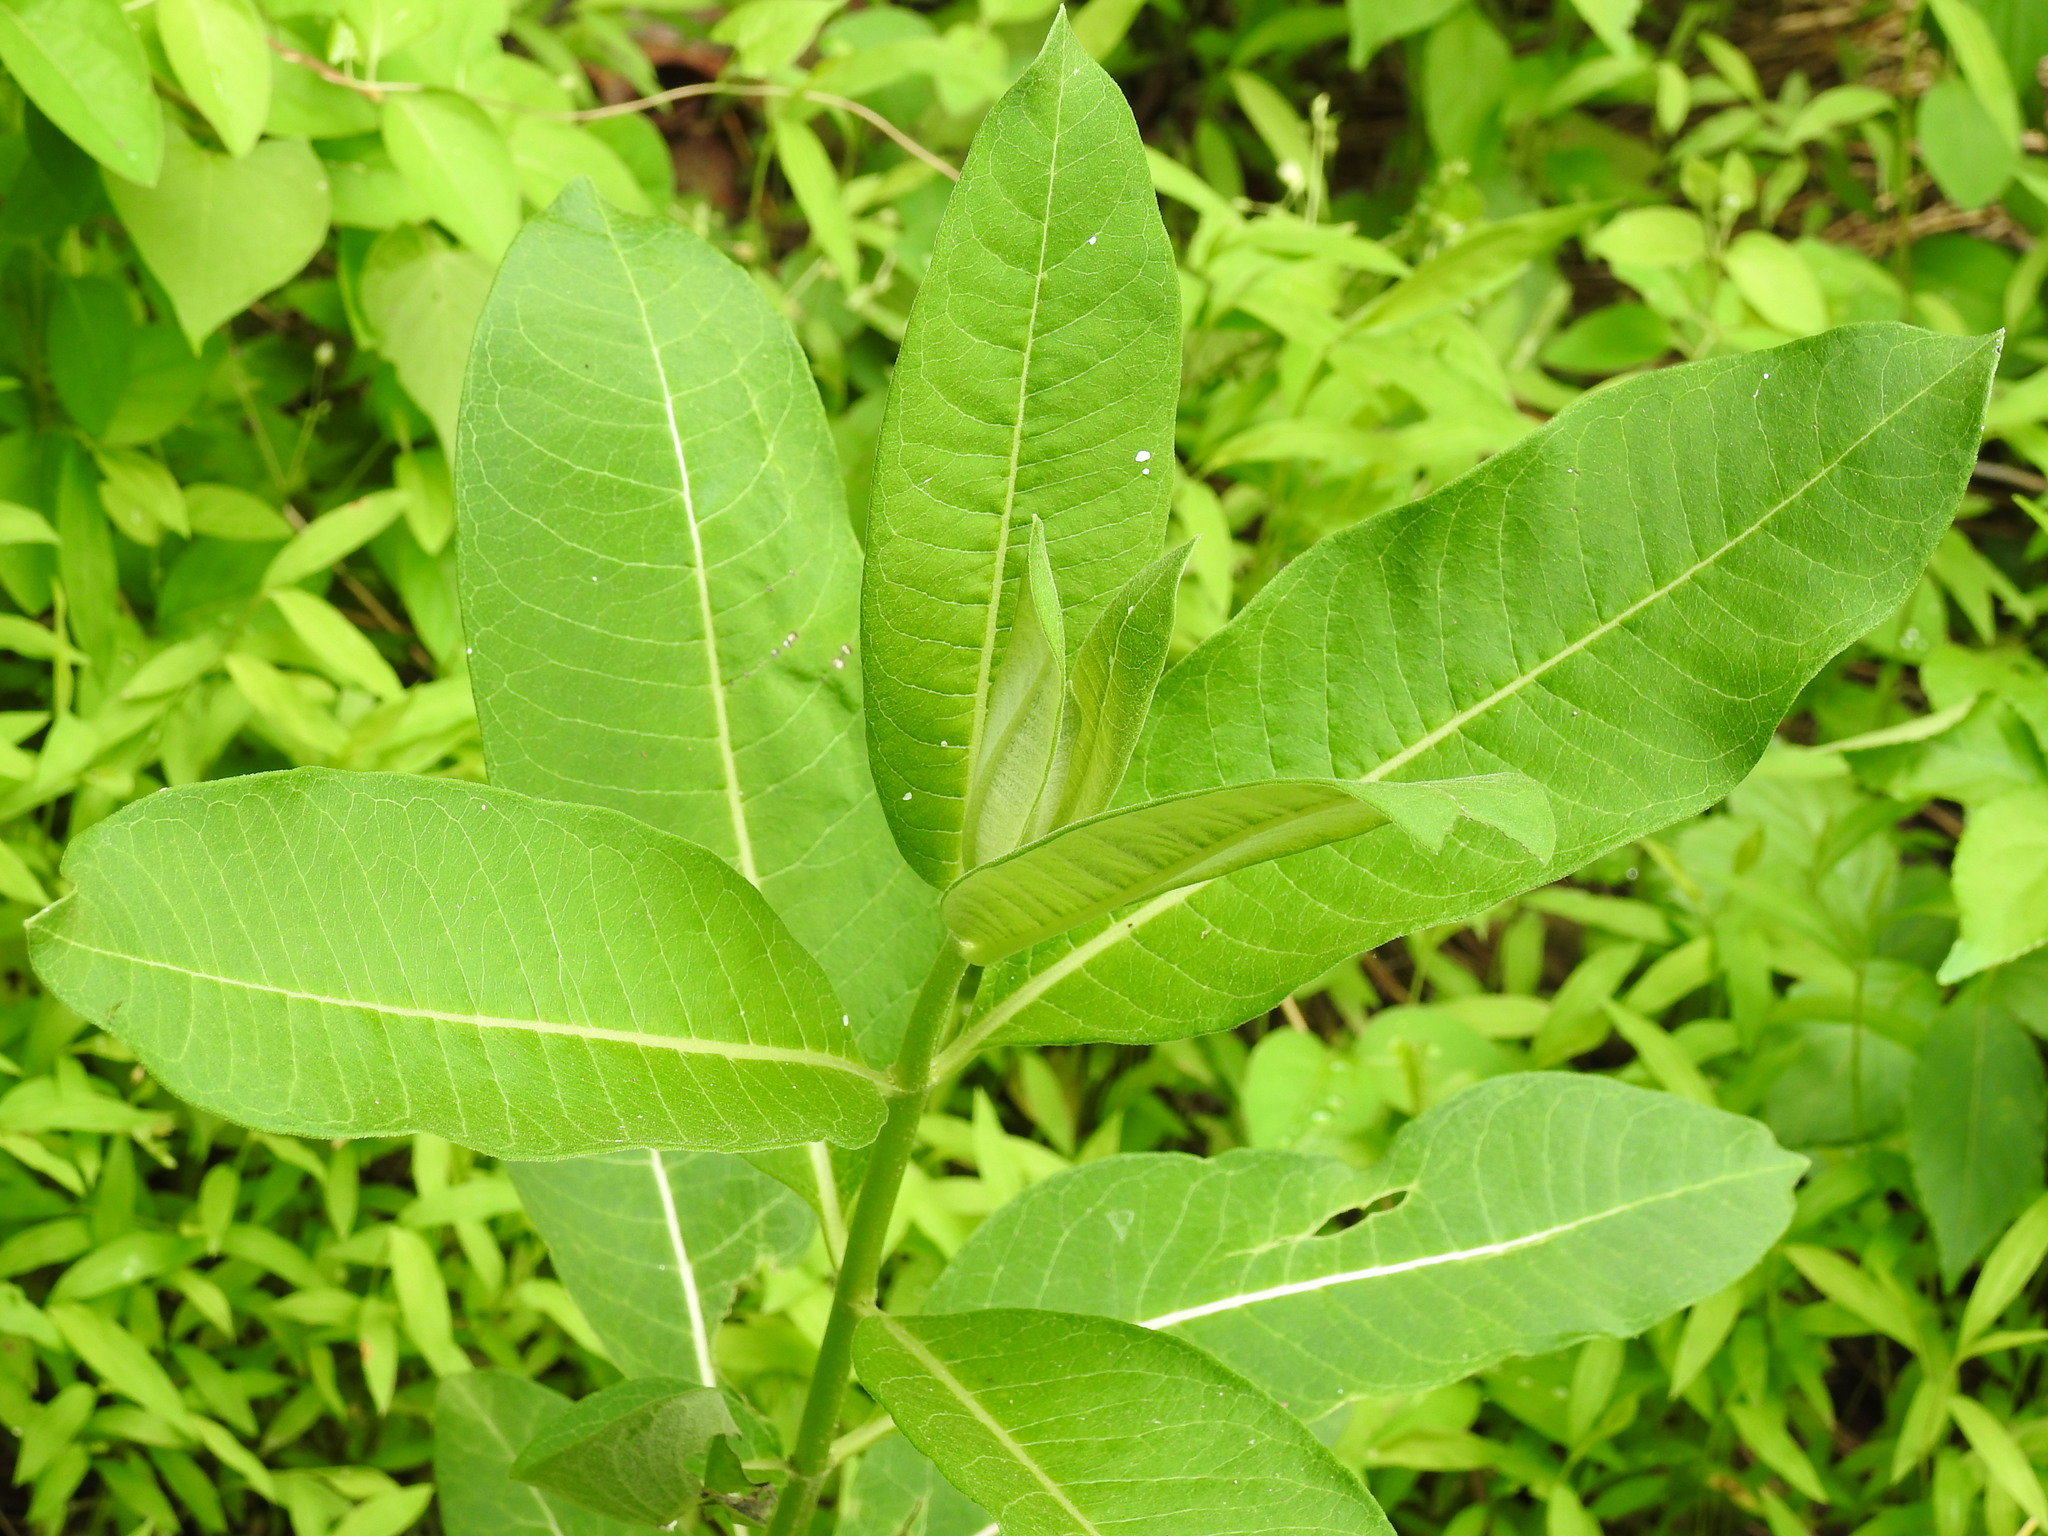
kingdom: Plantae
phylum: Tracheophyta
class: Magnoliopsida
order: Gentianales
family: Apocynaceae
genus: Asclepias
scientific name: Asclepias syriaca
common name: Common milkweed
